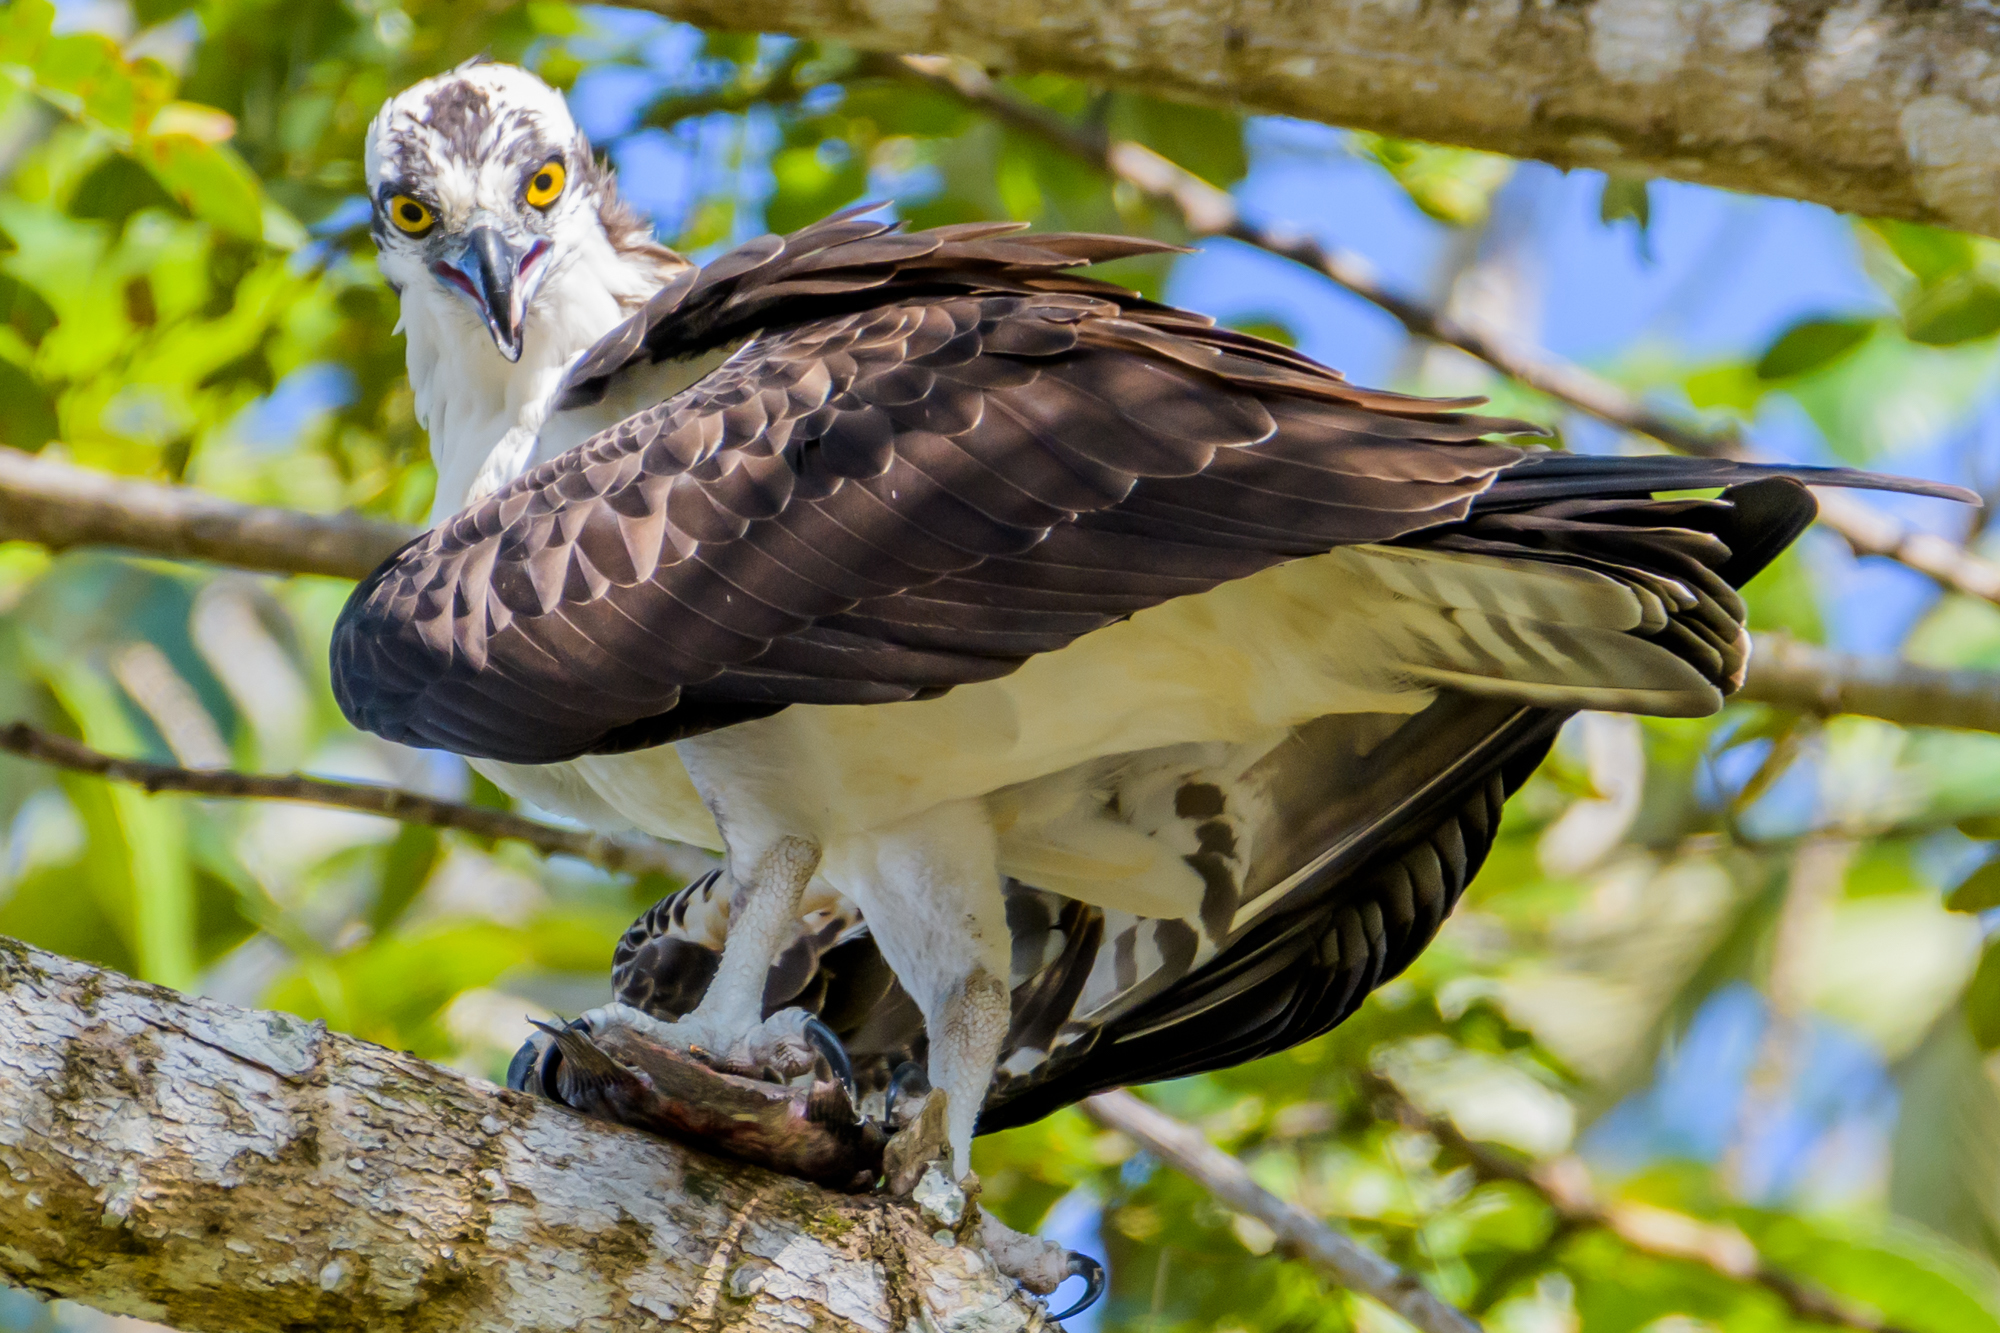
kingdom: Animalia
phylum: Chordata
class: Aves
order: Accipitriformes
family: Pandionidae
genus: Pandion
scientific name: Pandion haliaetus
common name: Osprey
